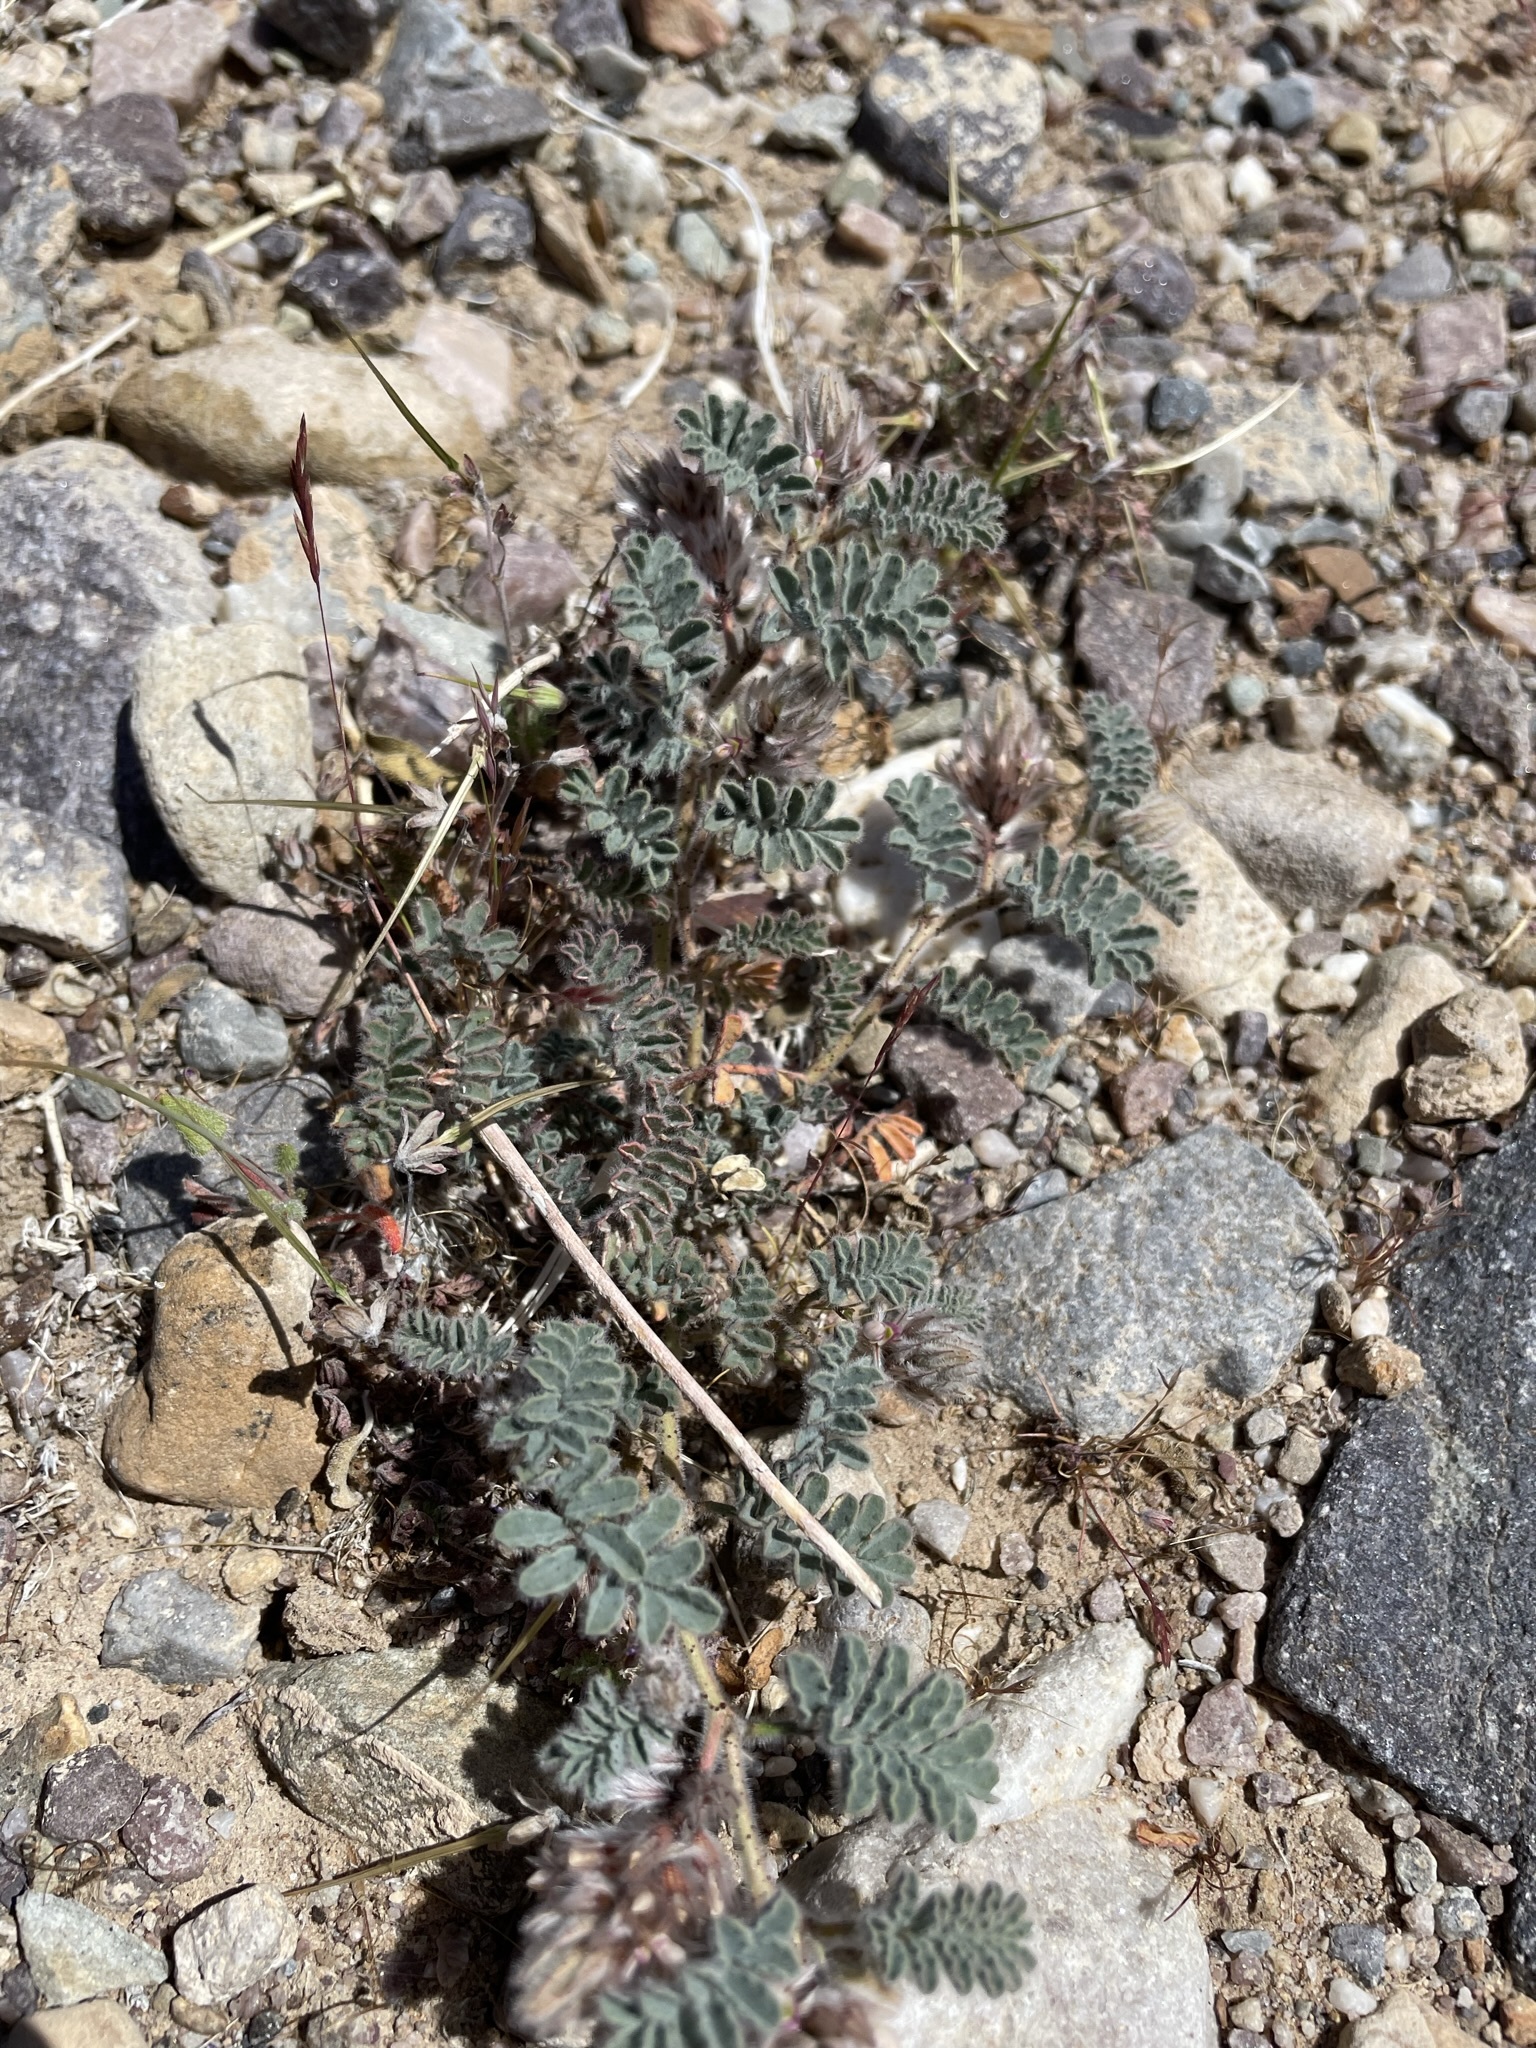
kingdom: Plantae
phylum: Tracheophyta
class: Magnoliopsida
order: Fabales
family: Fabaceae
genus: Dalea
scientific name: Dalea mollissima
